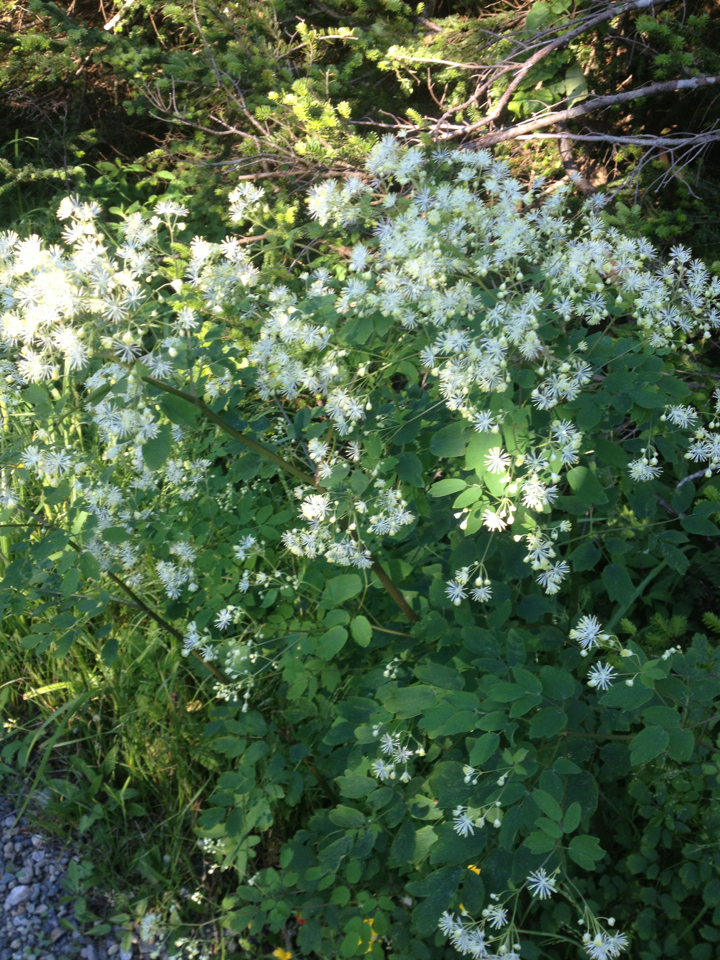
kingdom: Plantae
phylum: Tracheophyta
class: Magnoliopsida
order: Ranunculales
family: Ranunculaceae
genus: Thalictrum
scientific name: Thalictrum pubescens
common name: King-of-the-meadow
